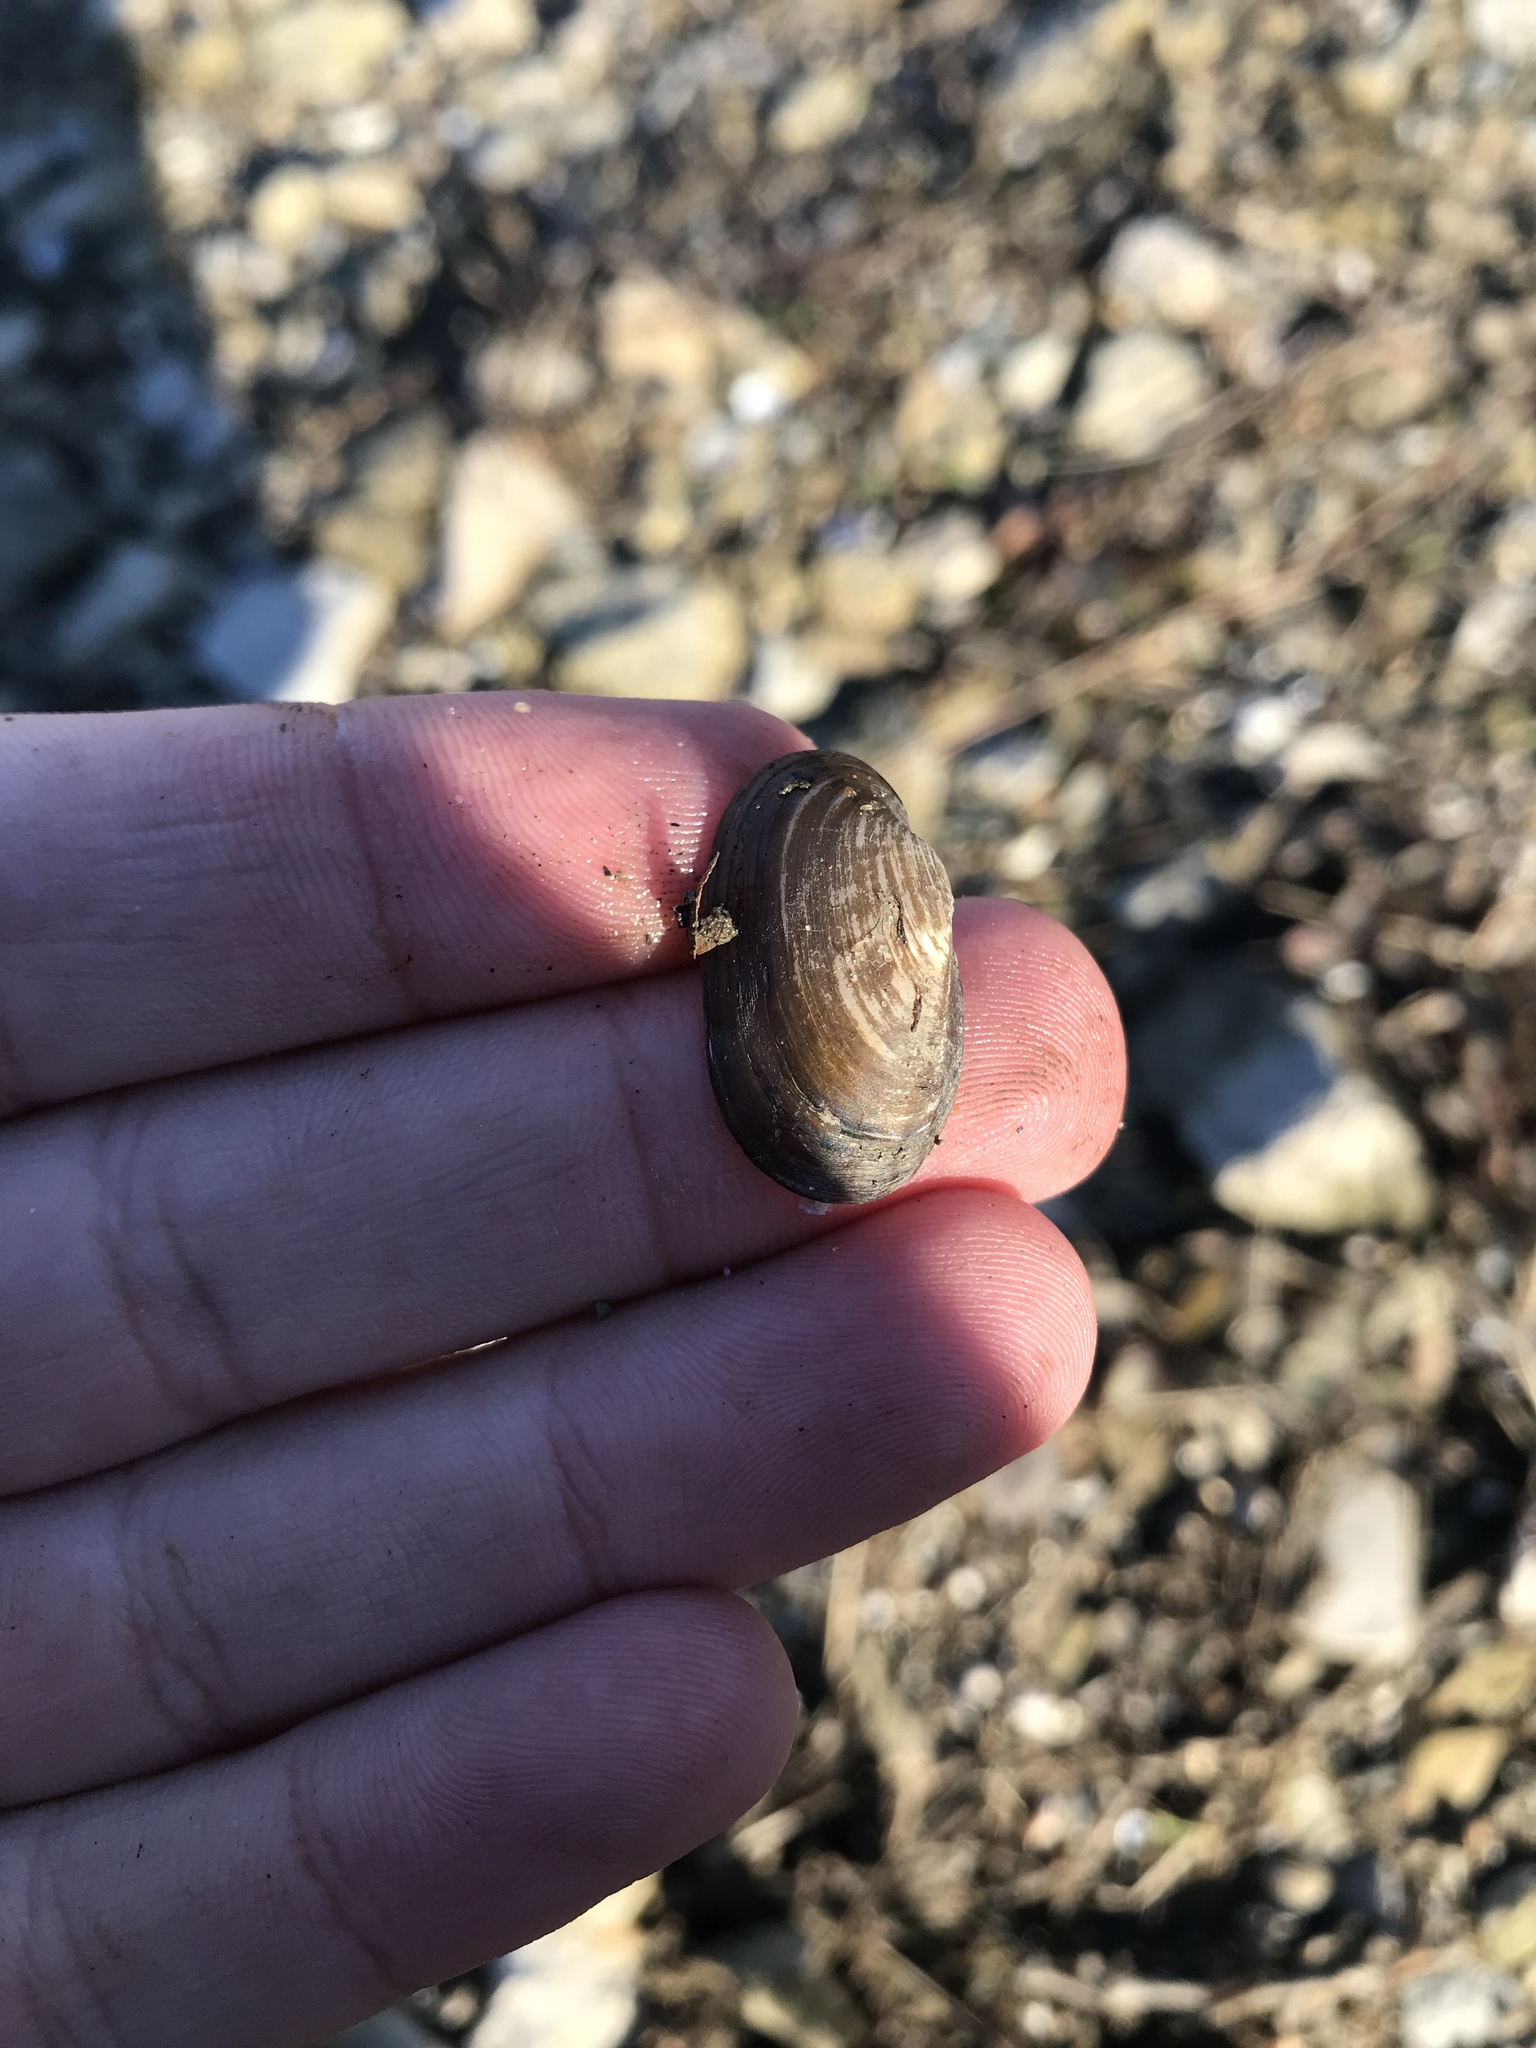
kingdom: Animalia
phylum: Mollusca
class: Bivalvia
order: Unionida
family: Unionidae
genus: Toxolasma
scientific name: Toxolasma parvum
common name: Lilliput
